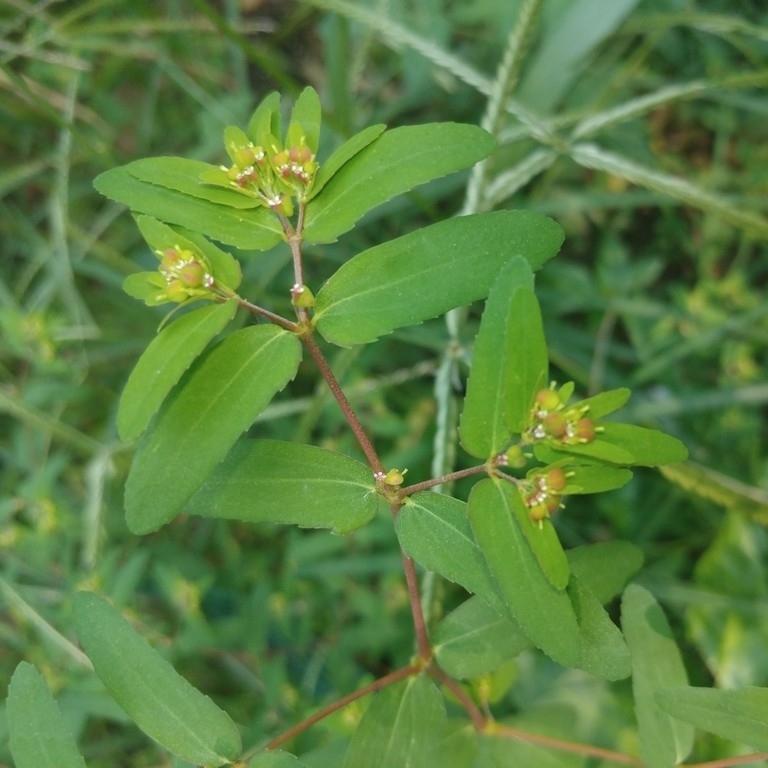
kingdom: Plantae
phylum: Tracheophyta
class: Magnoliopsida
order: Malpighiales
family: Euphorbiaceae
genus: Euphorbia
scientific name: Euphorbia nutans
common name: Eyebane
